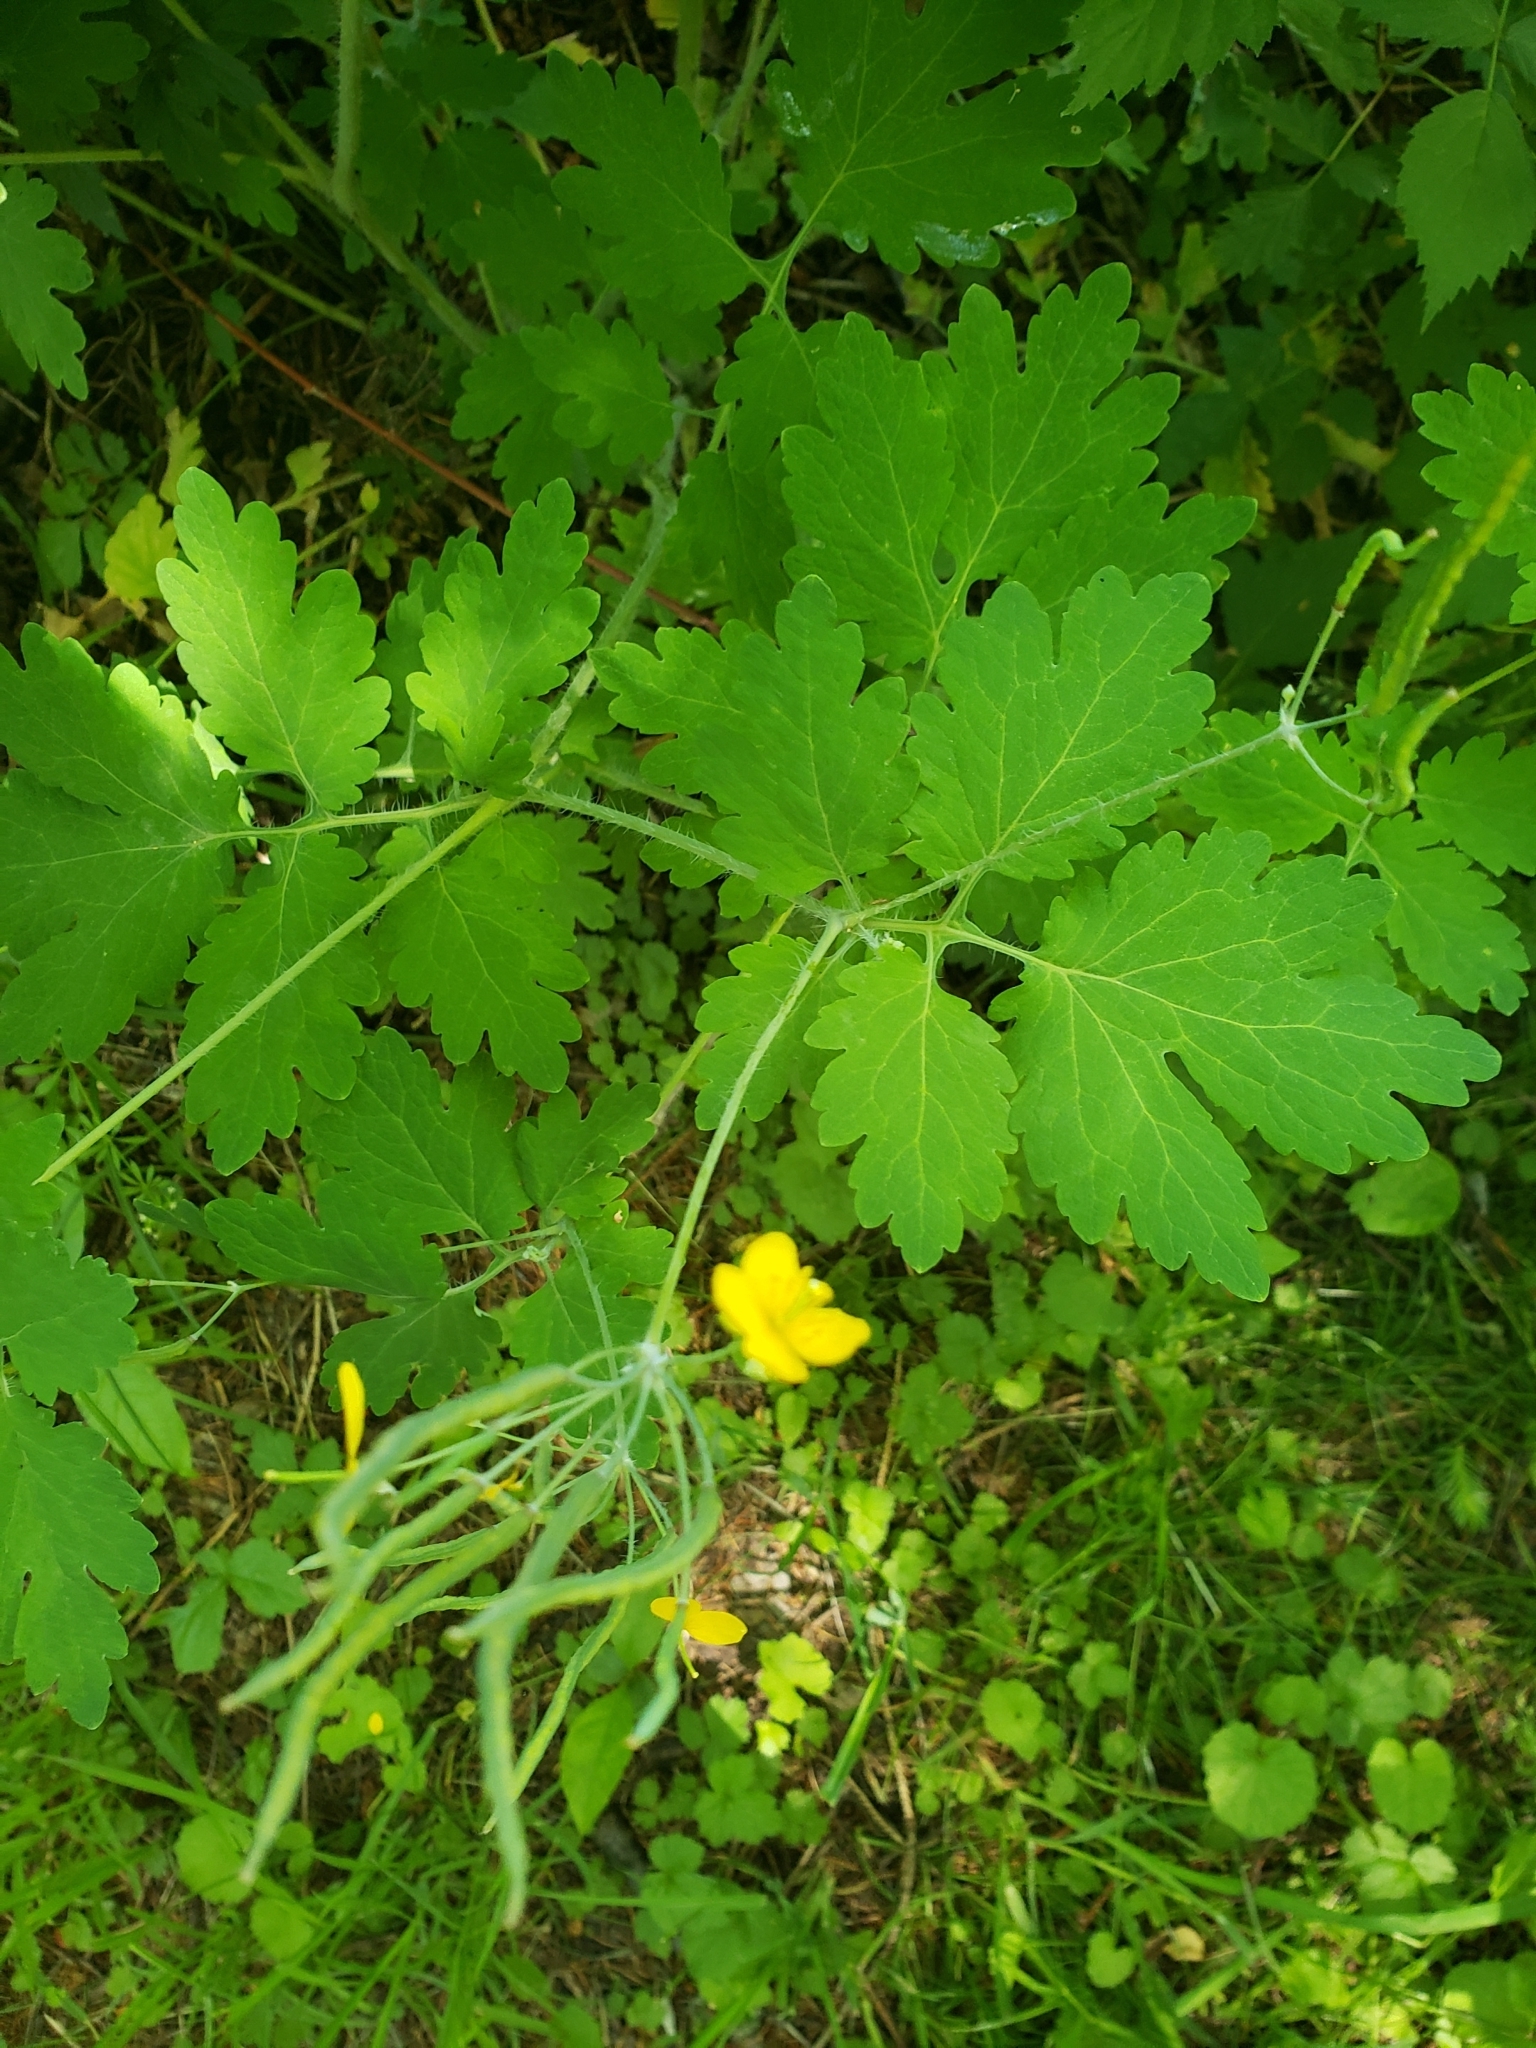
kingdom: Plantae
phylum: Tracheophyta
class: Magnoliopsida
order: Ranunculales
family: Papaveraceae
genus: Chelidonium
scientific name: Chelidonium majus
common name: Greater celandine
